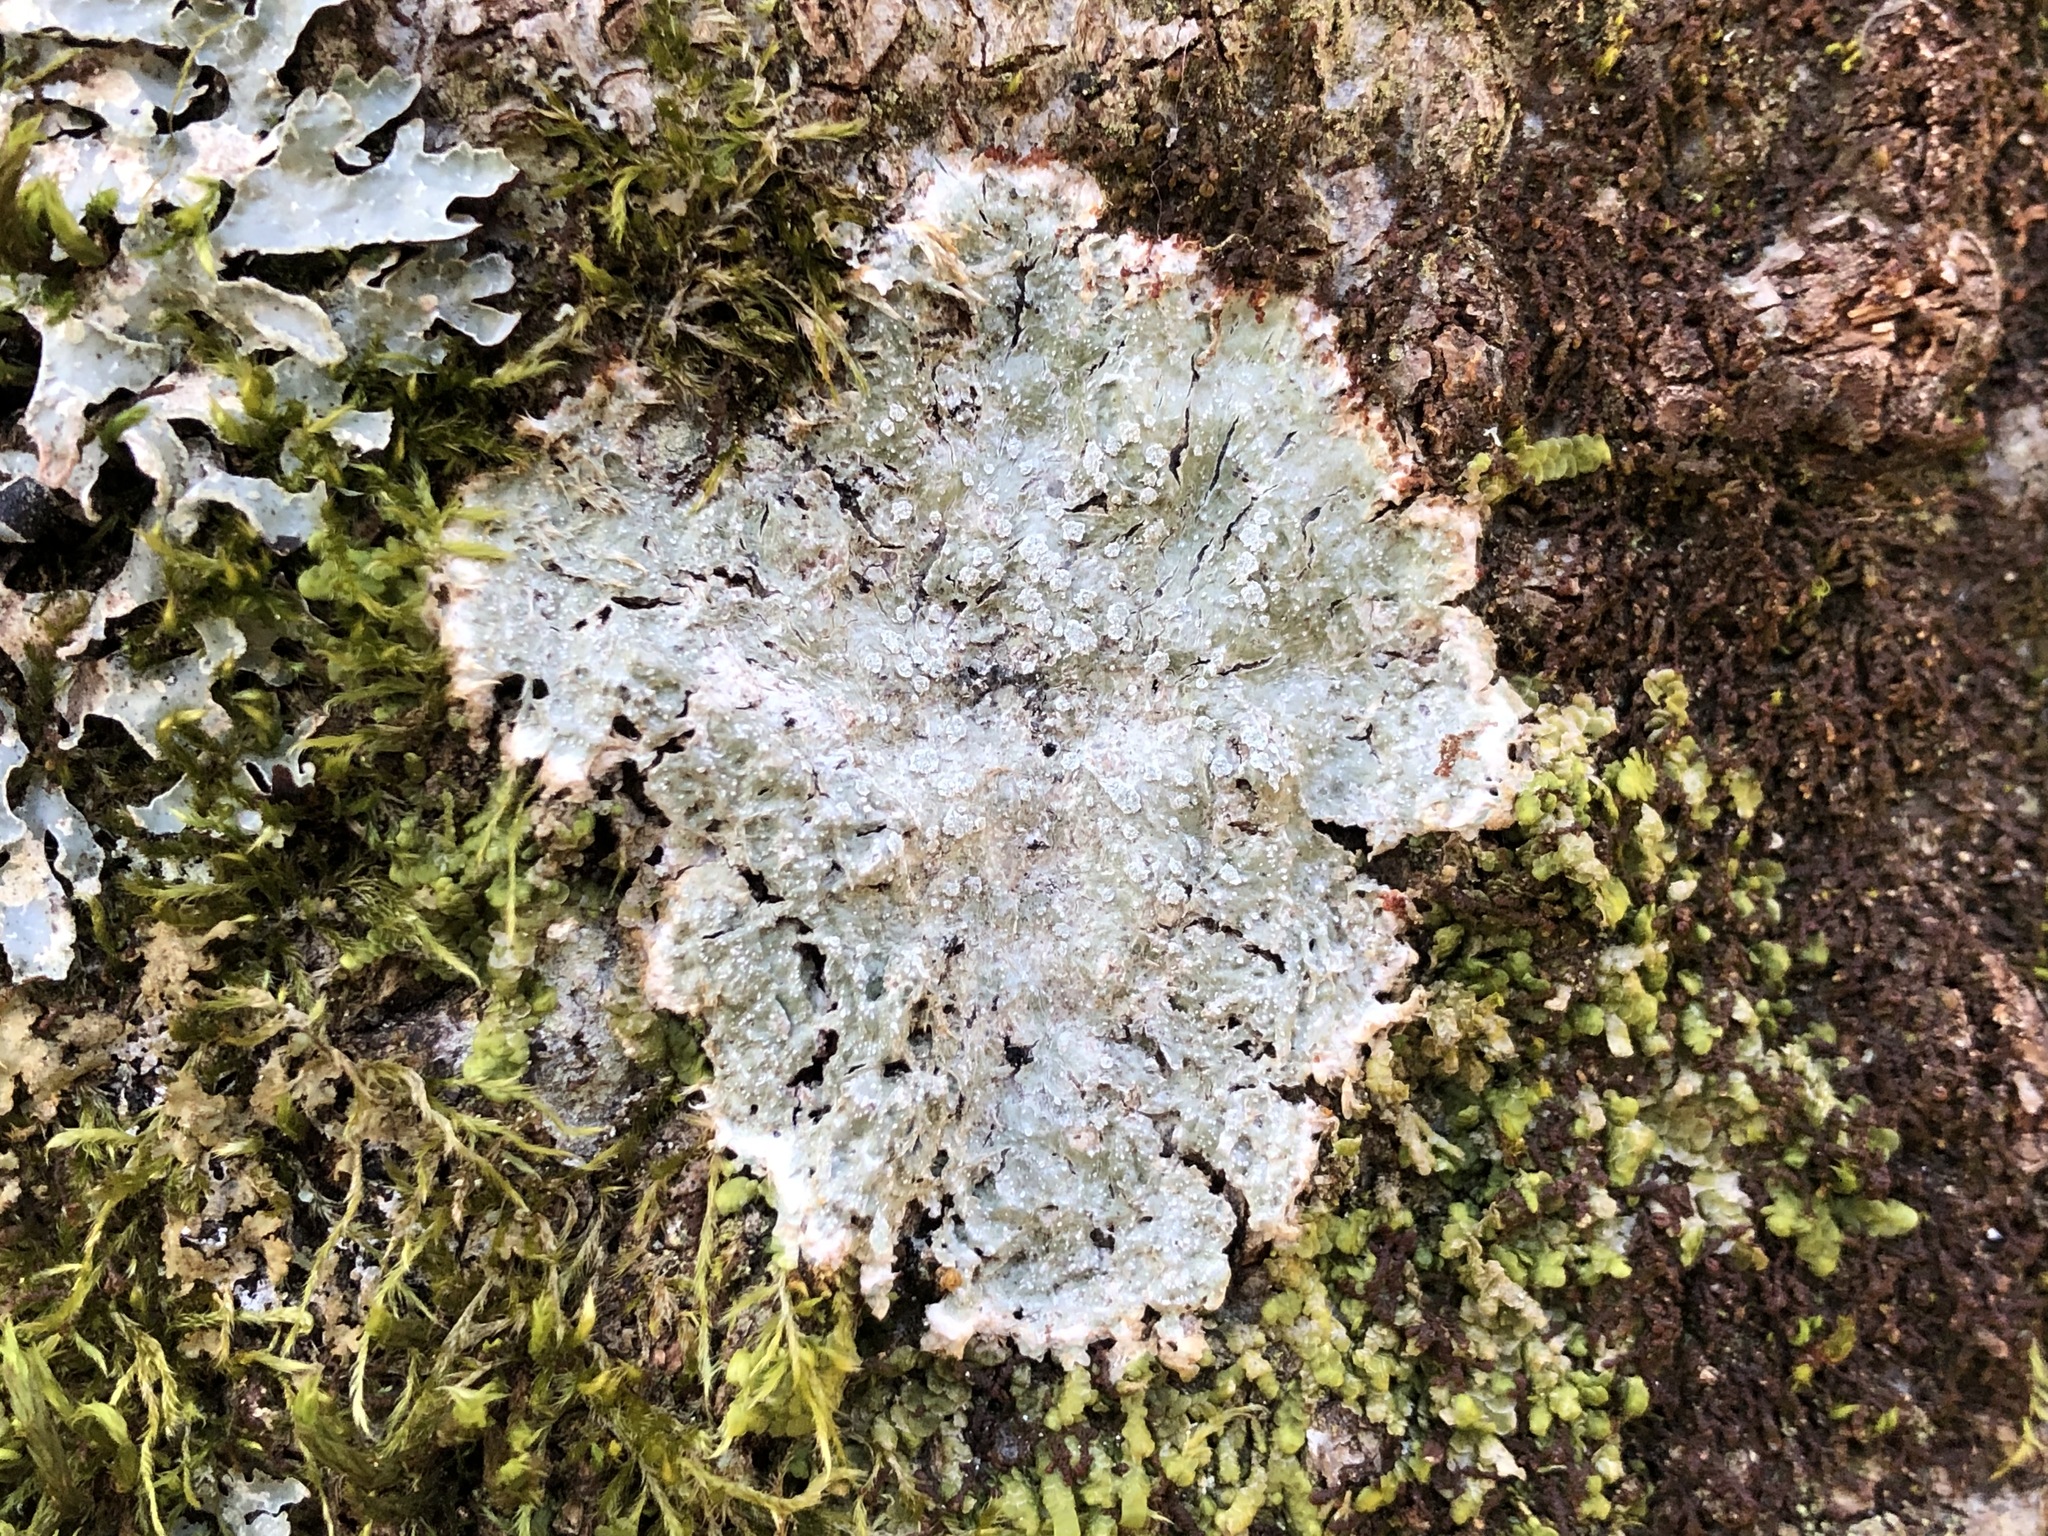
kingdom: Fungi
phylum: Ascomycota
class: Lecanoromycetes
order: Pertusariales
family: Pertusariaceae
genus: Lepra
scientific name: Lepra albescens
